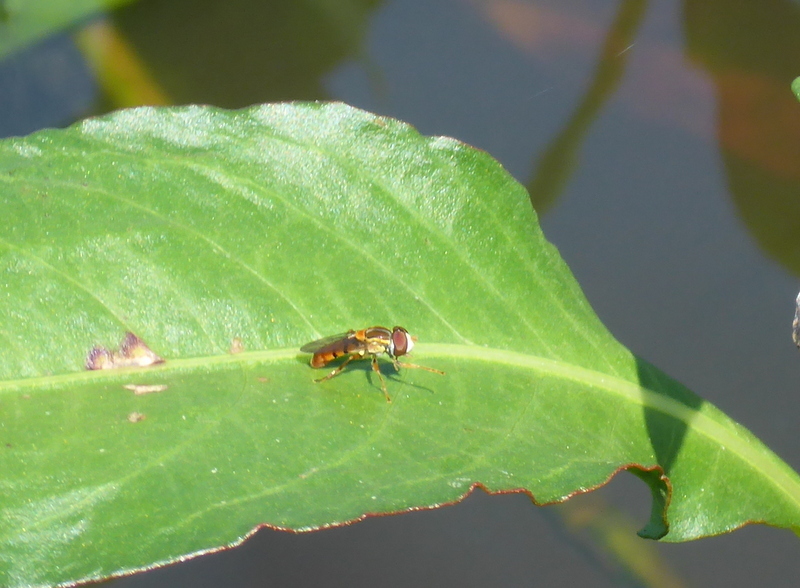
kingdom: Animalia
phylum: Arthropoda
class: Insecta
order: Diptera
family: Syrphidae
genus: Toxomerus
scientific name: Toxomerus jussiaeae
